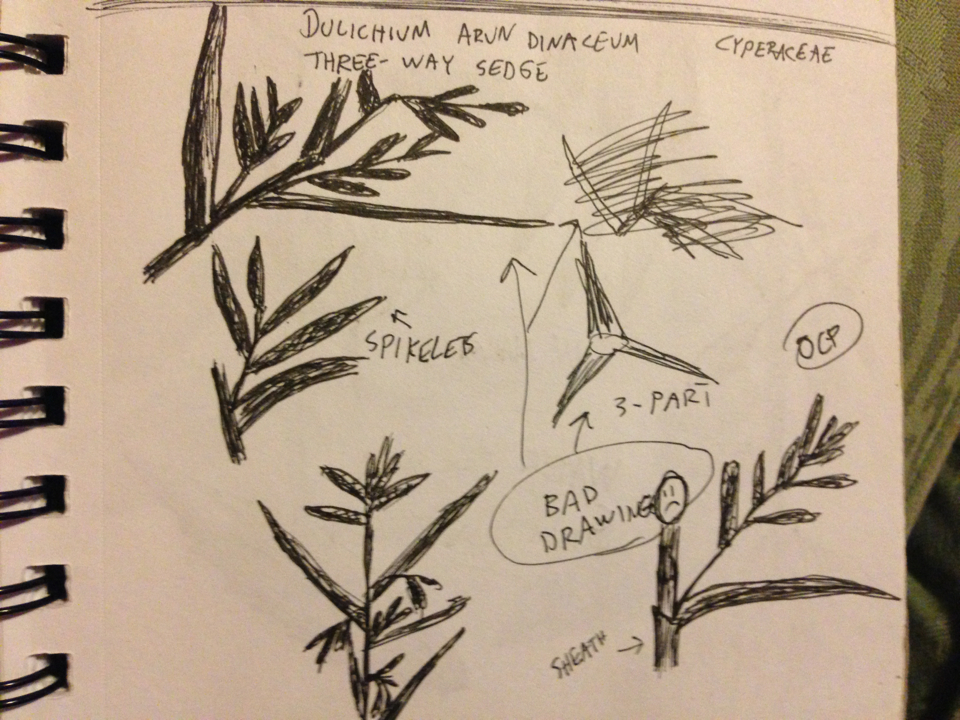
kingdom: Plantae
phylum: Tracheophyta
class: Liliopsida
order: Poales
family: Cyperaceae
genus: Dulichium
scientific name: Dulichium arundinaceum
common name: Three-way sedge
